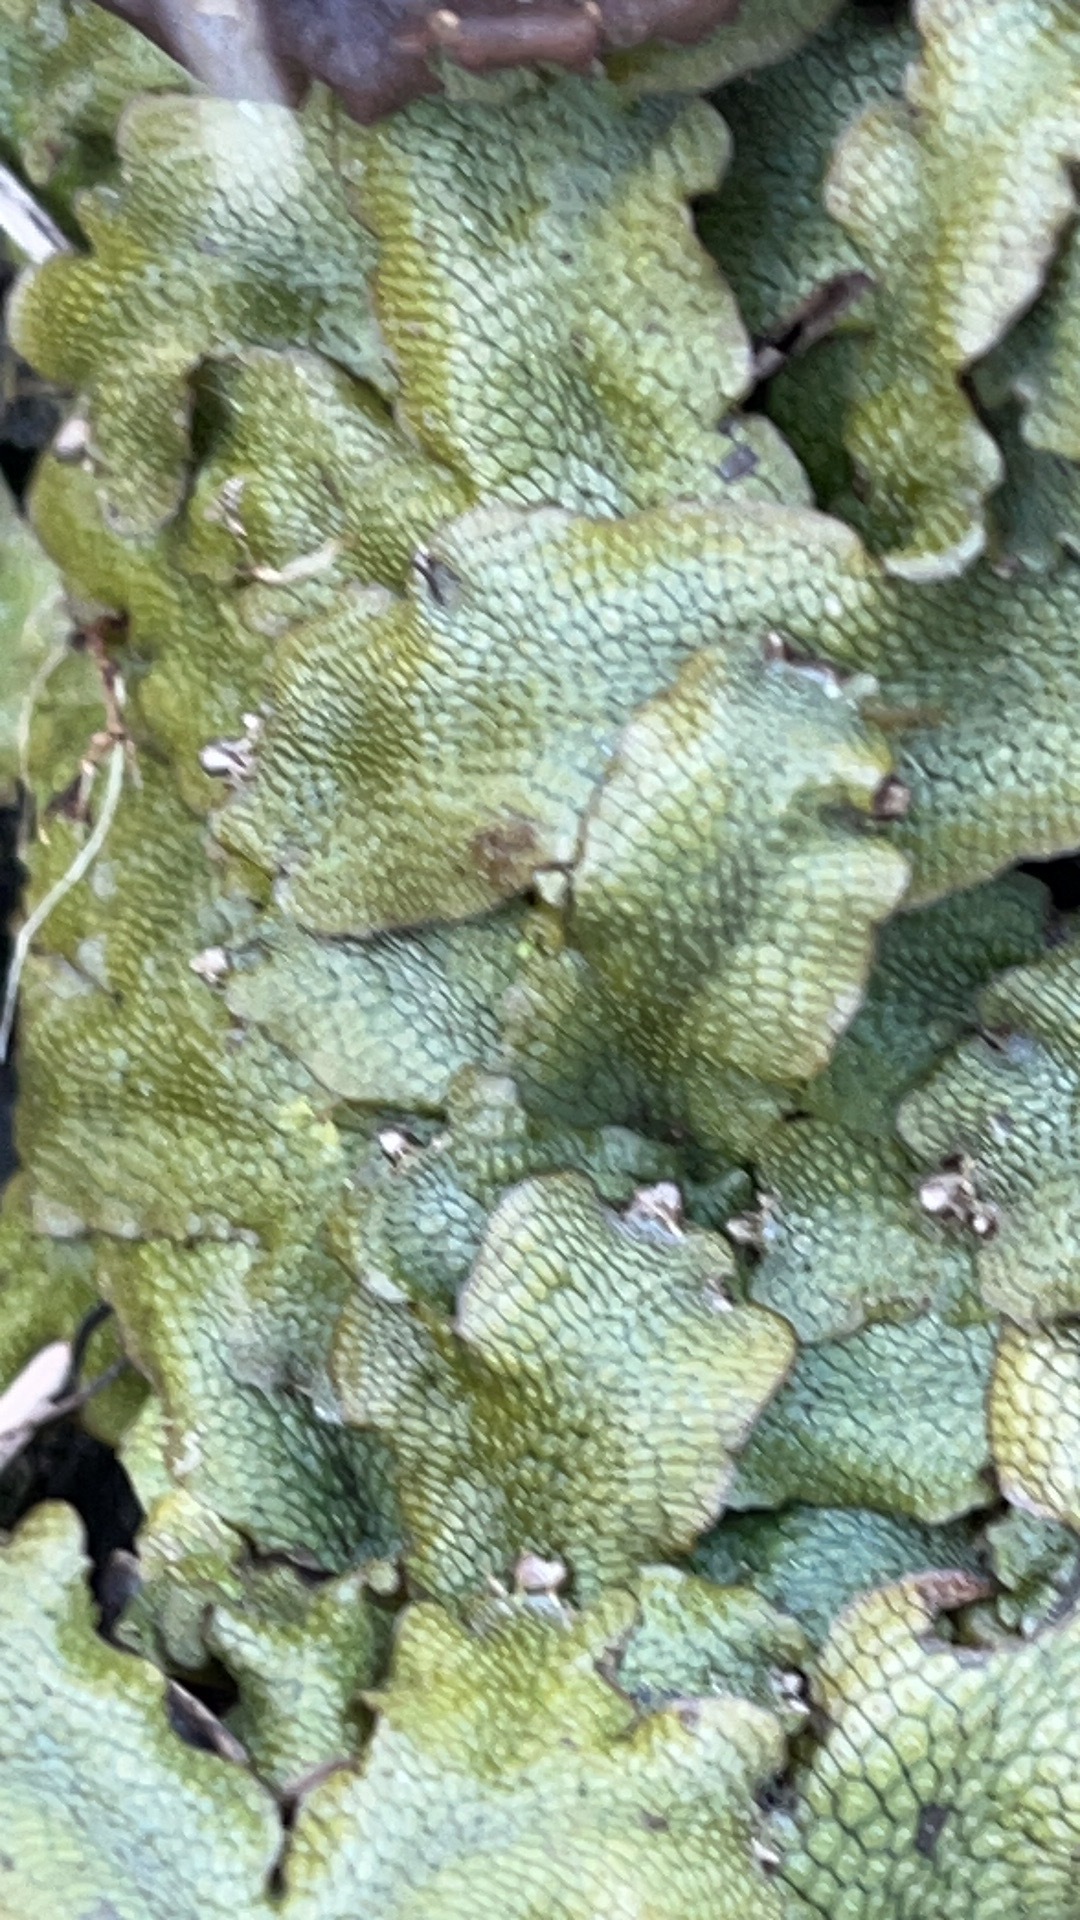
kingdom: Plantae
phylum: Marchantiophyta
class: Marchantiopsida
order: Marchantiales
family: Conocephalaceae
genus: Conocephalum
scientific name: Conocephalum salebrosum
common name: Cat-tongue liverwort
